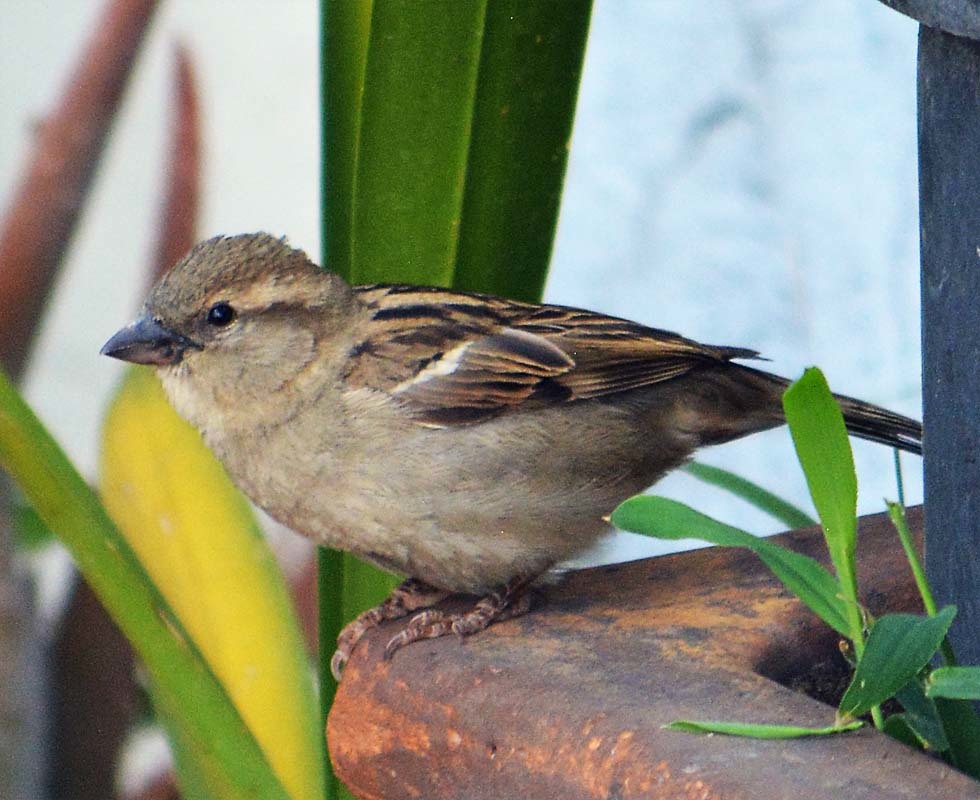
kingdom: Animalia
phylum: Chordata
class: Aves
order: Passeriformes
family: Passeridae
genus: Passer
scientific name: Passer domesticus
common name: House sparrow
